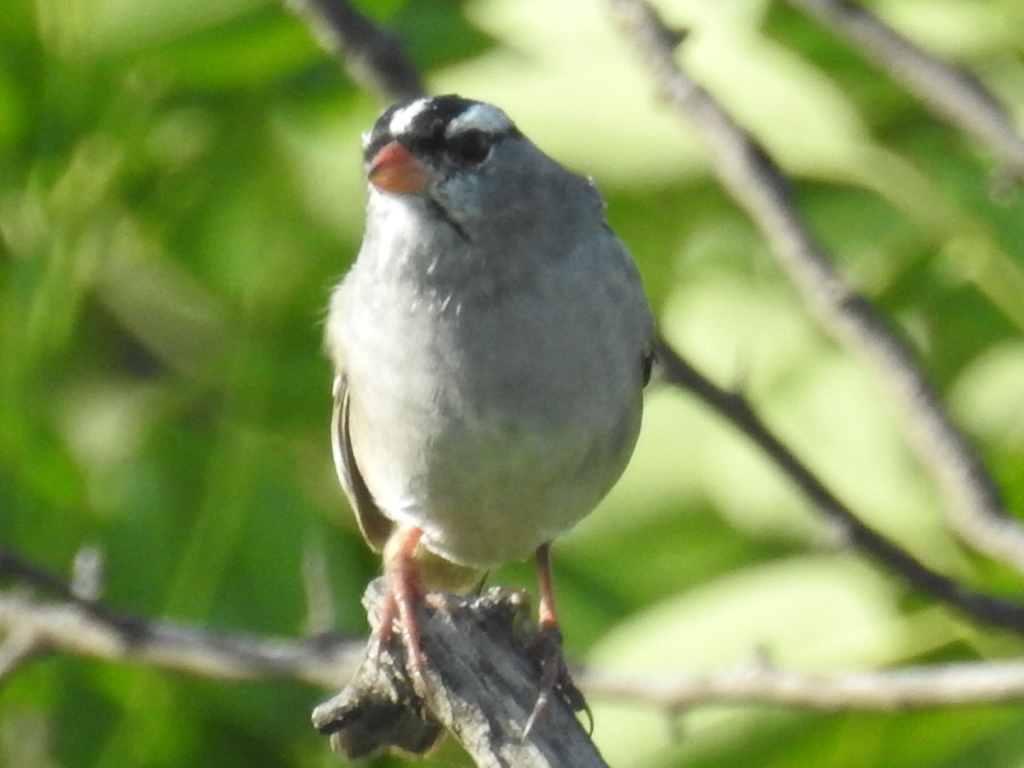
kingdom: Animalia
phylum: Chordata
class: Aves
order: Passeriformes
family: Passerellidae
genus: Zonotrichia
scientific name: Zonotrichia leucophrys
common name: White-crowned sparrow
